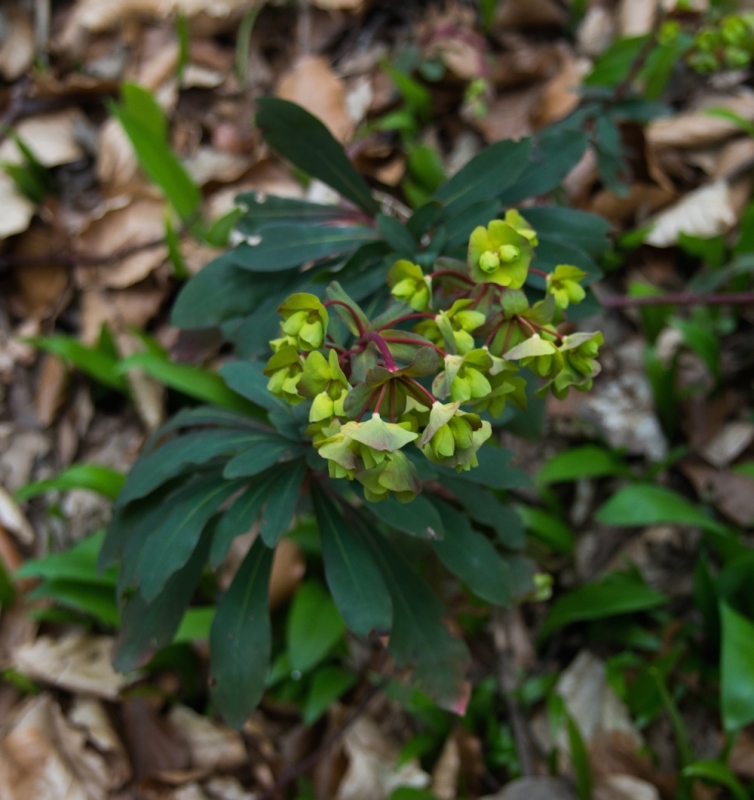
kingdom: Plantae
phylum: Tracheophyta
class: Magnoliopsida
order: Malpighiales
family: Euphorbiaceae
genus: Euphorbia
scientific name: Euphorbia amygdaloides
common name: Wood spurge
